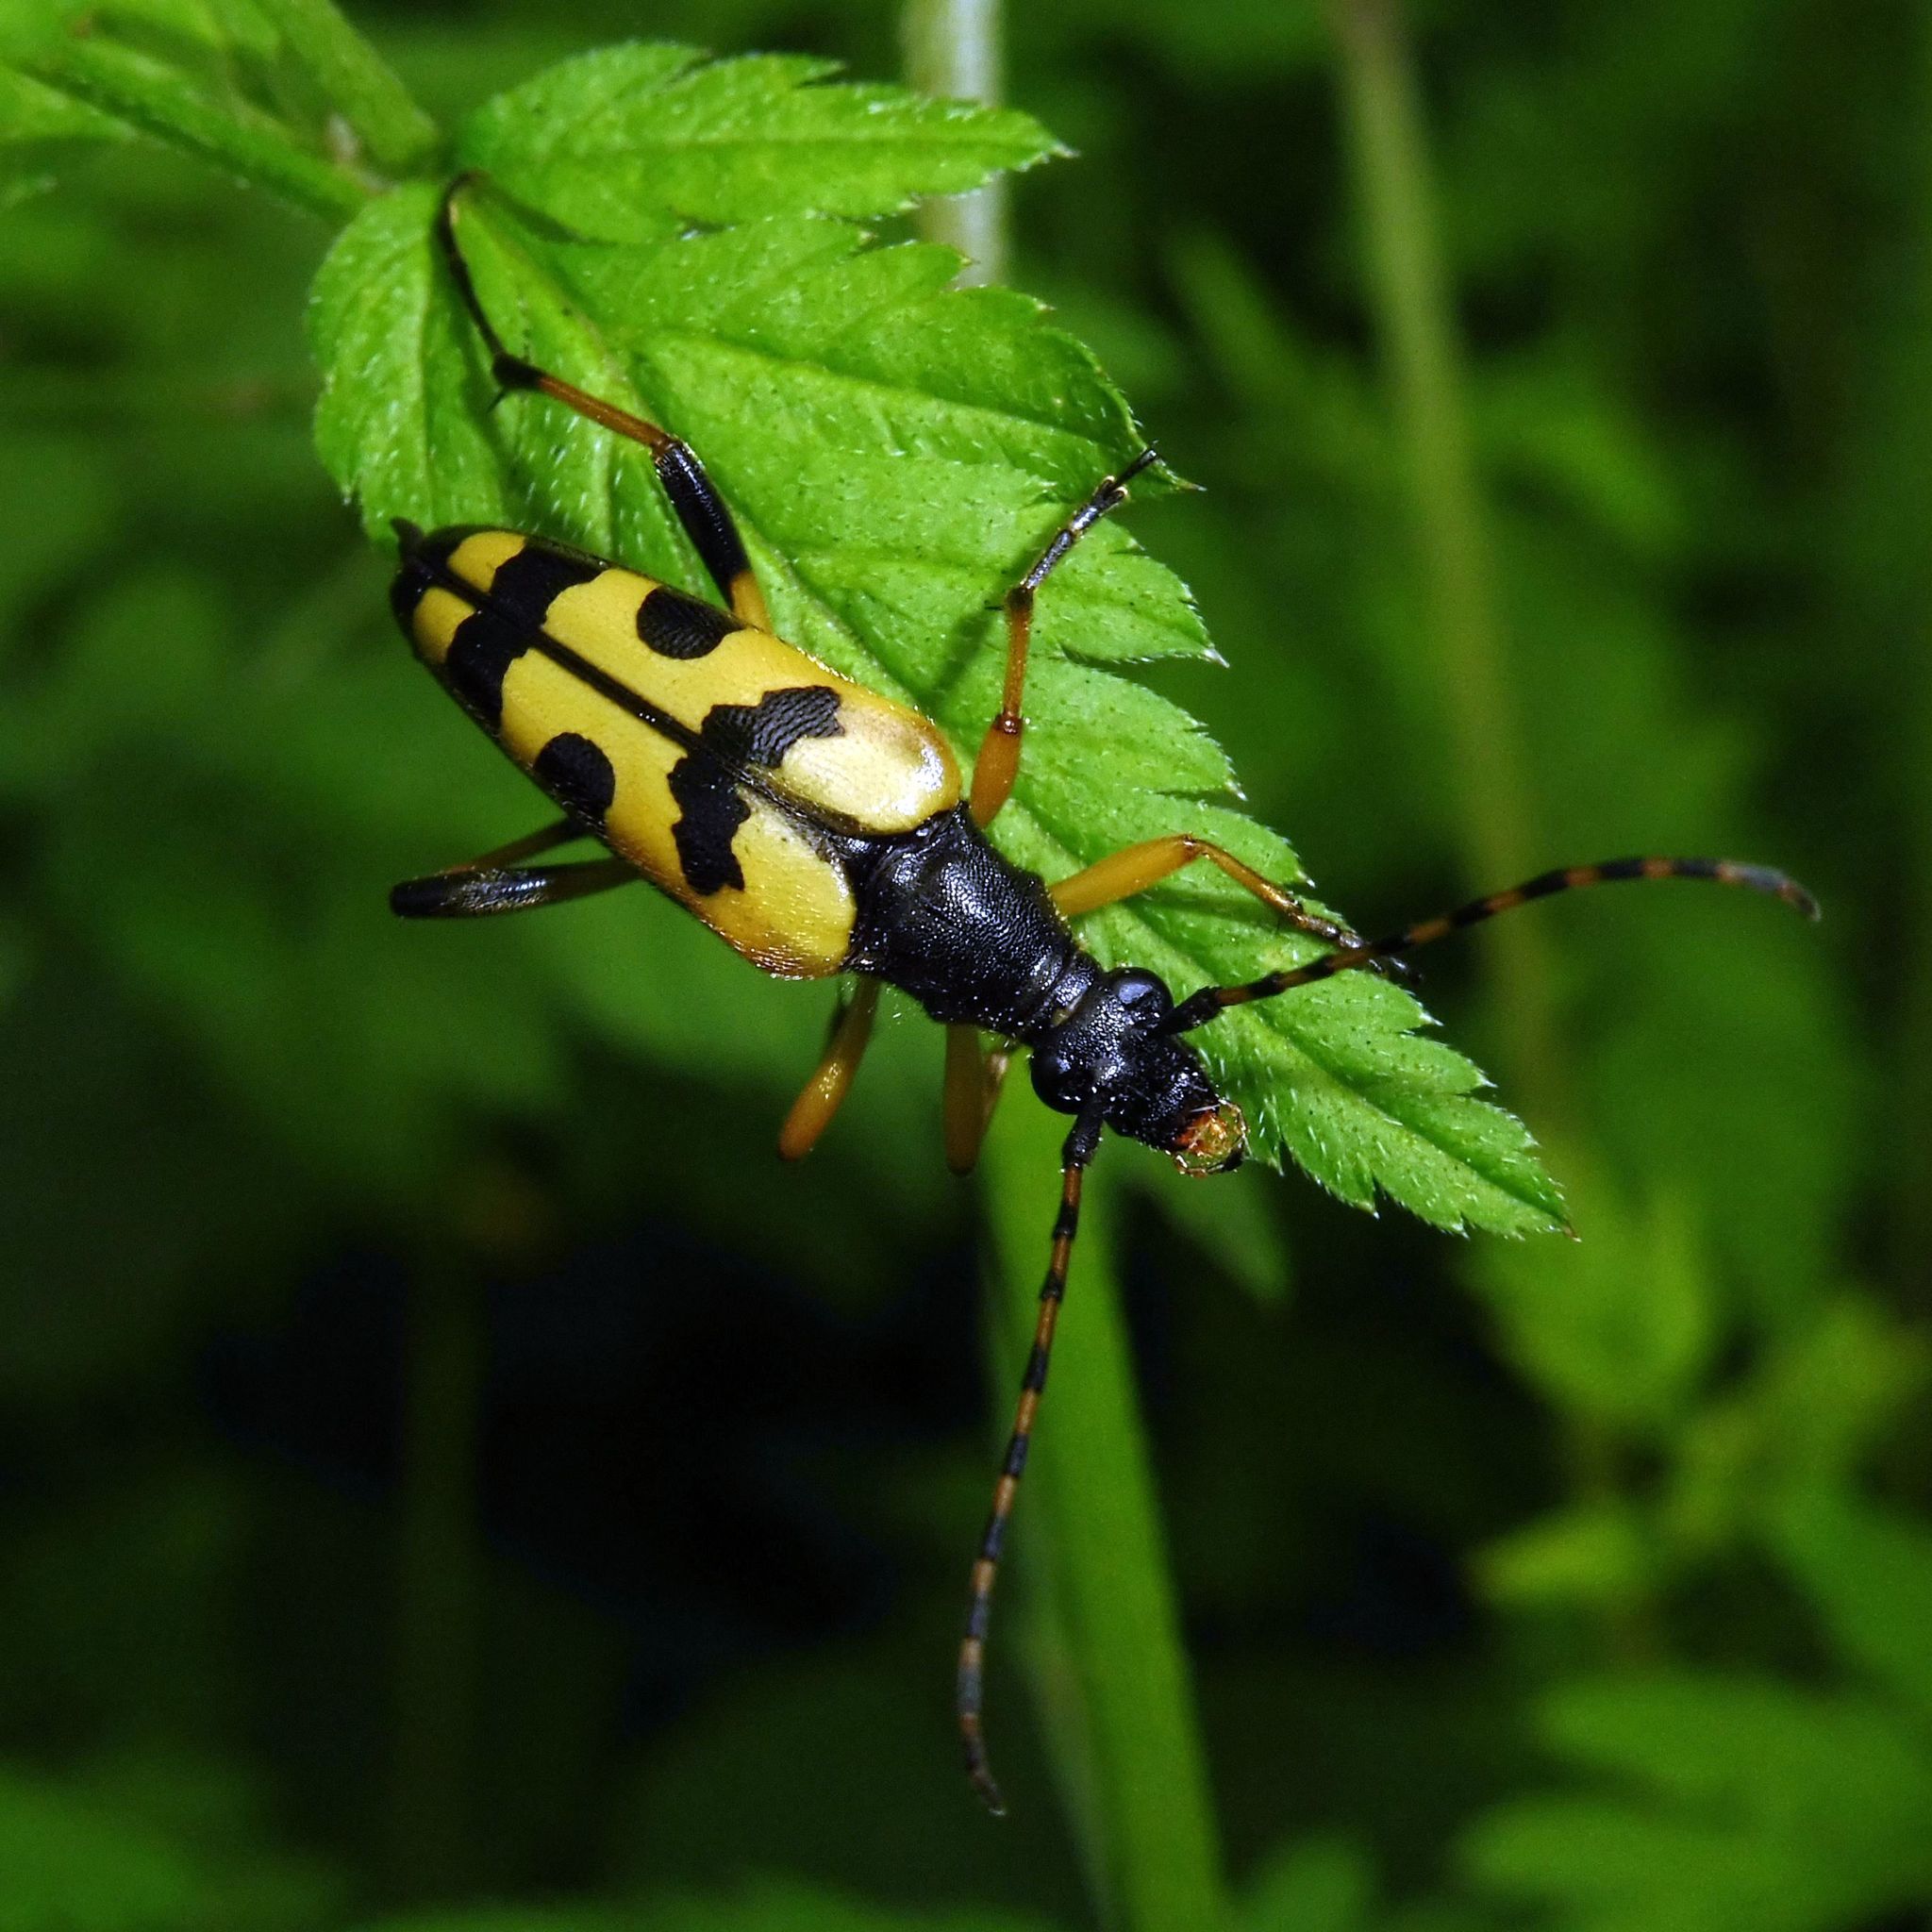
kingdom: Animalia
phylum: Arthropoda
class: Insecta
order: Coleoptera
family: Cerambycidae
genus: Rutpela
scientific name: Rutpela maculata
